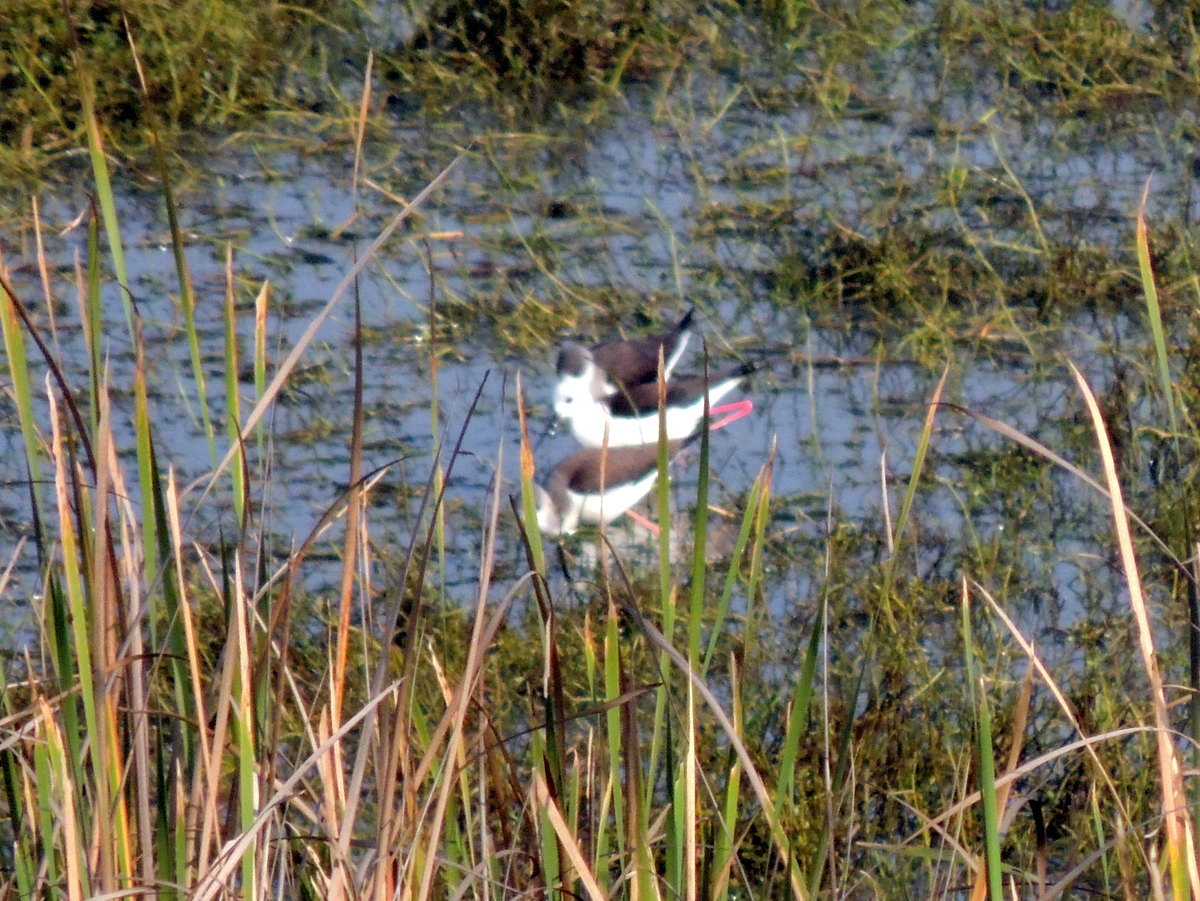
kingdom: Animalia
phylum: Chordata
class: Aves
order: Charadriiformes
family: Recurvirostridae
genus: Himantopus
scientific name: Himantopus himantopus
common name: Black-winged stilt
